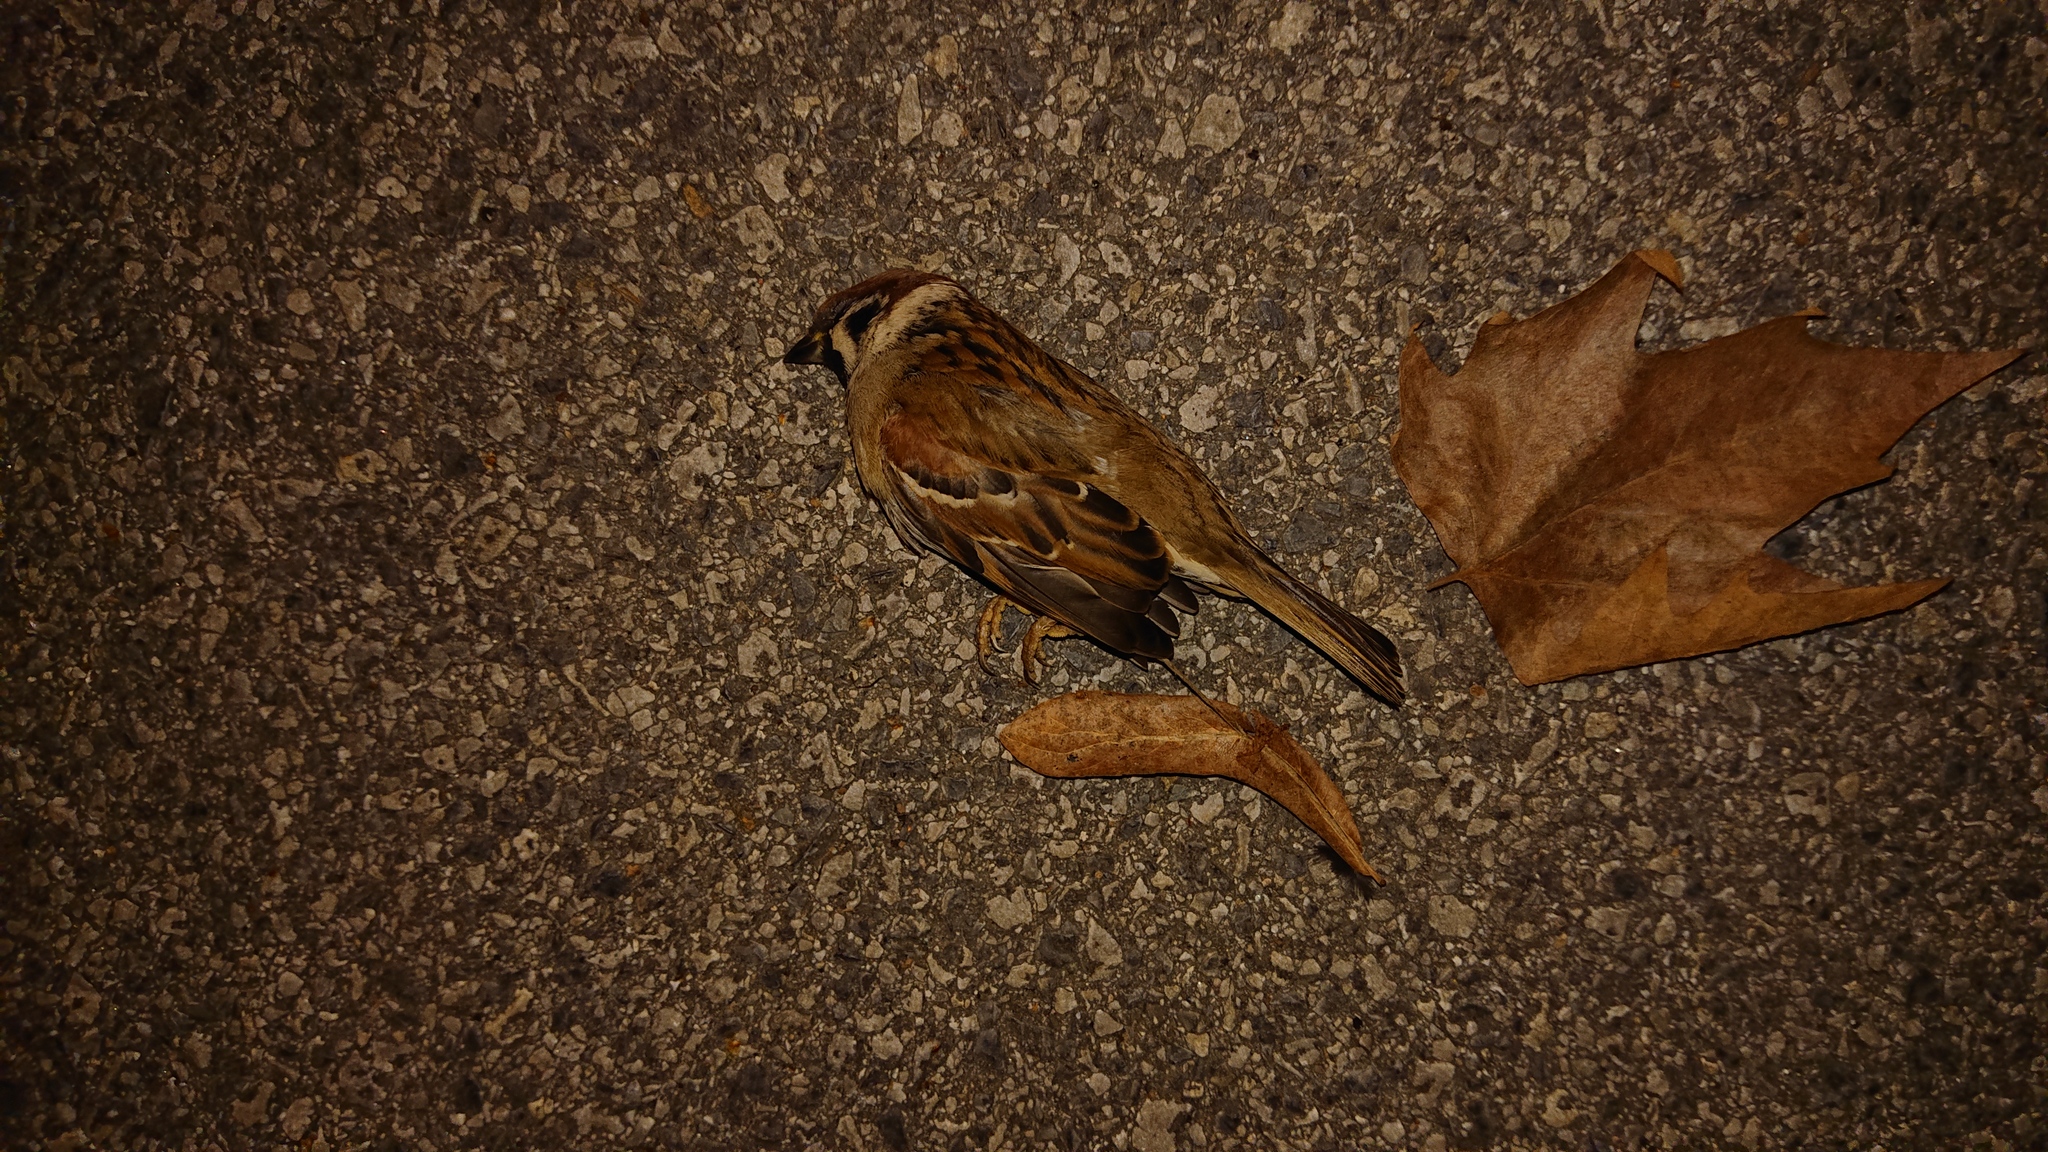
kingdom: Animalia
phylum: Chordata
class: Aves
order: Passeriformes
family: Passeridae
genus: Passer
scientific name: Passer montanus
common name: Eurasian tree sparrow
